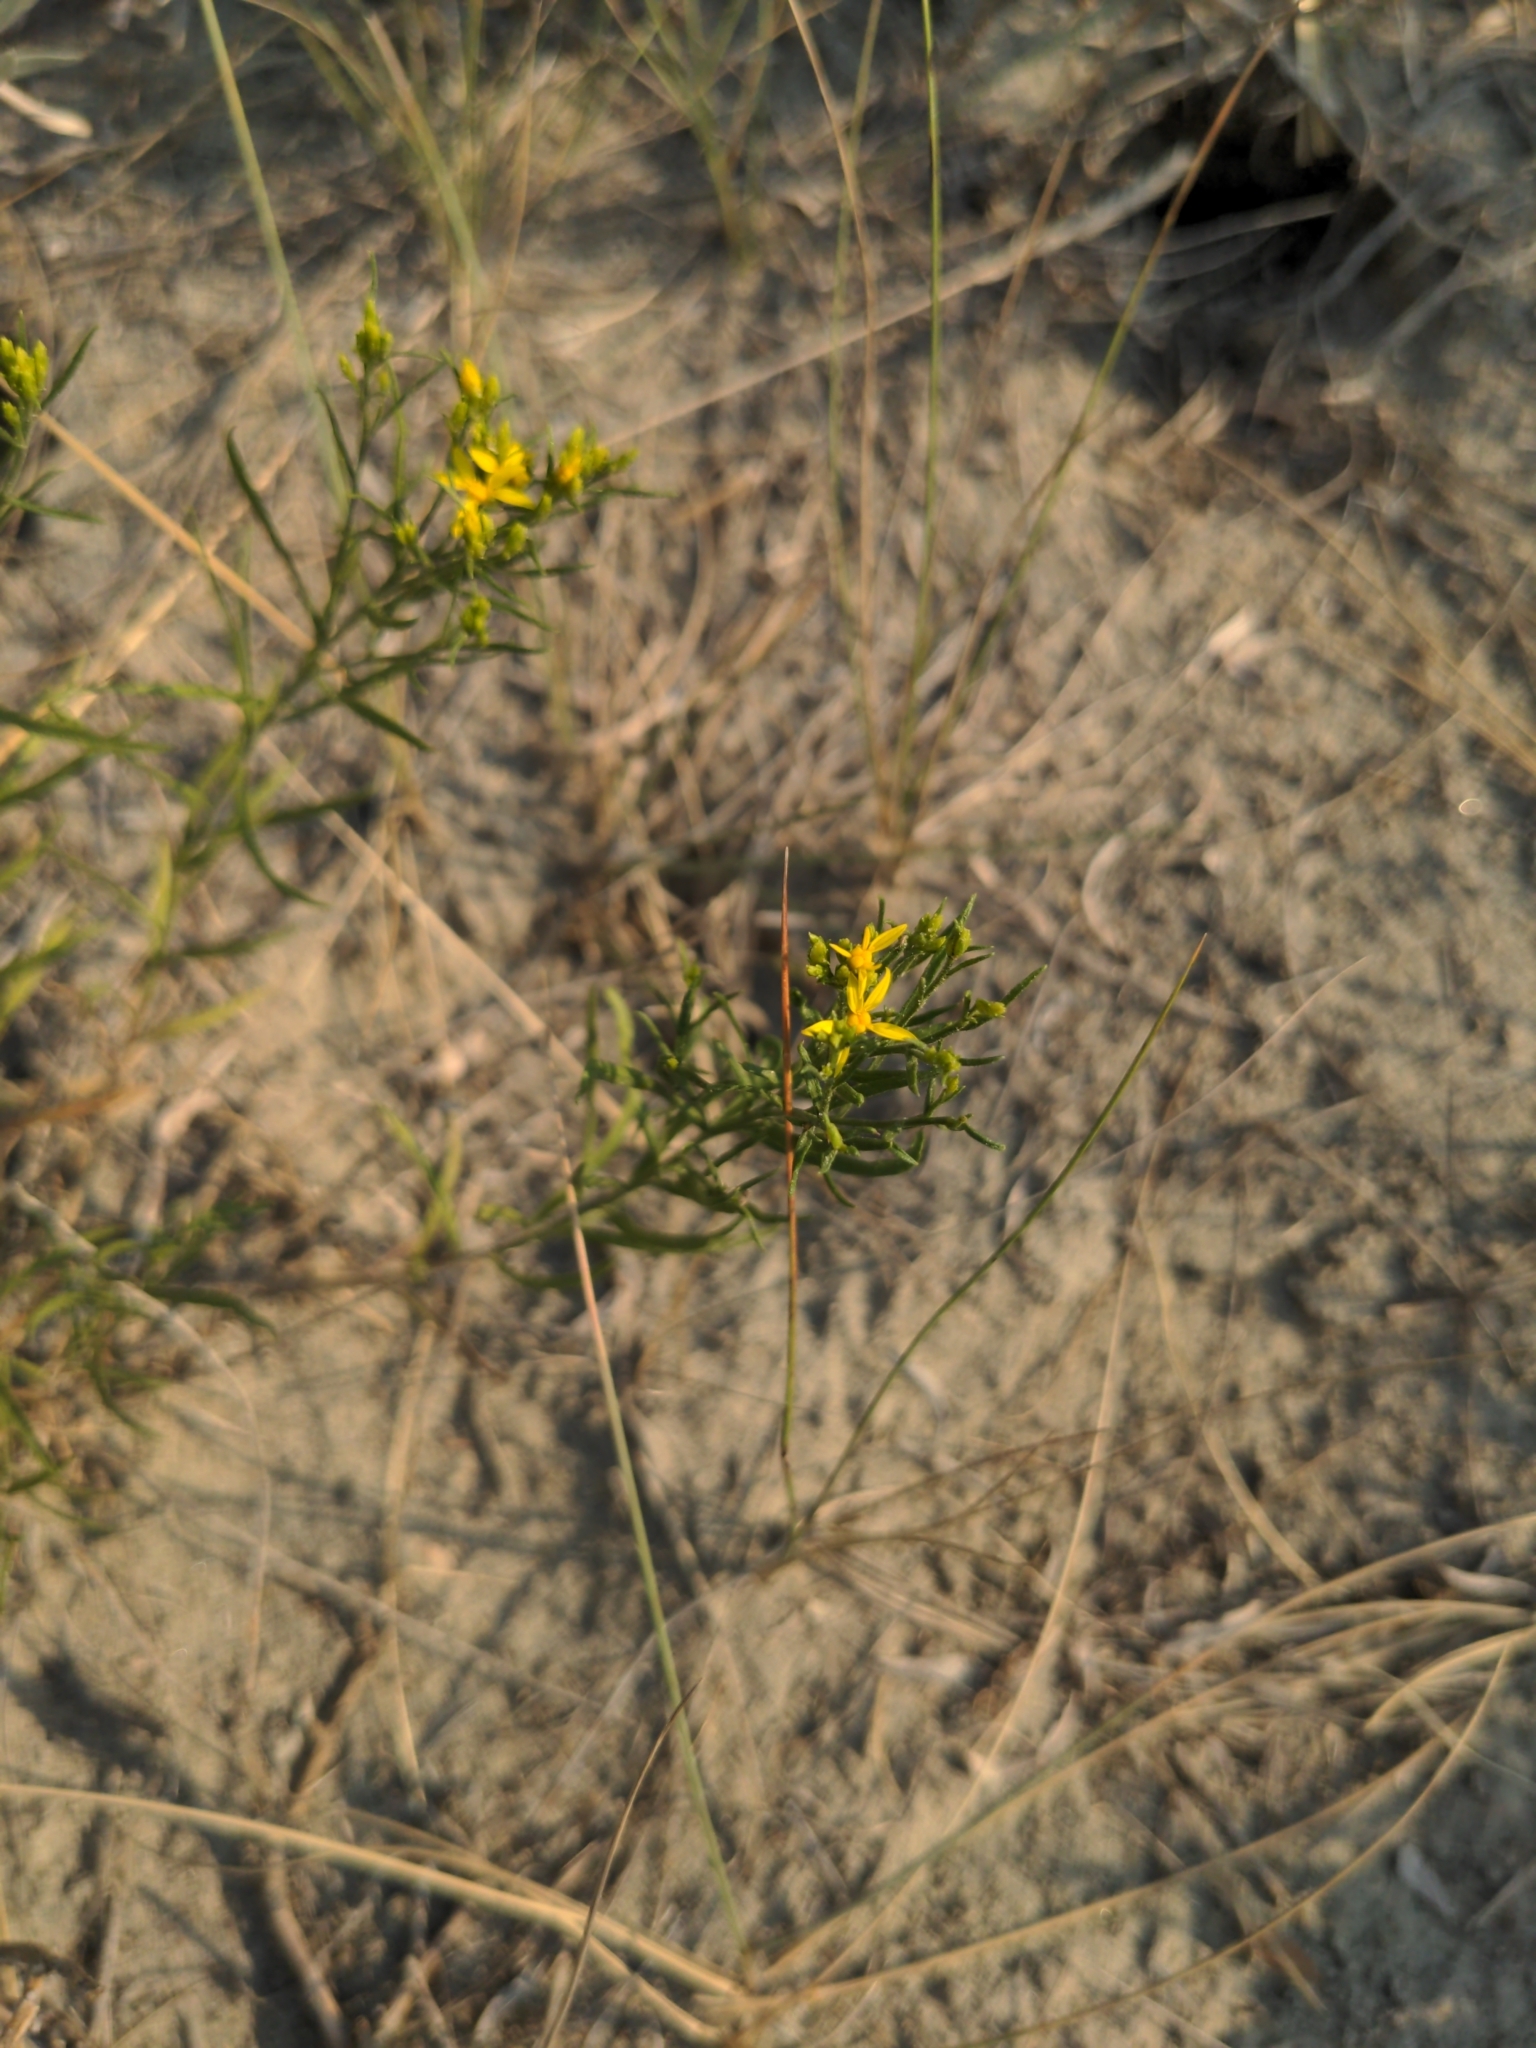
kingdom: Plantae
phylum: Tracheophyta
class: Magnoliopsida
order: Asterales
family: Asteraceae
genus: Gutierrezia
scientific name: Gutierrezia sarothrae
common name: Broom snakeweed
